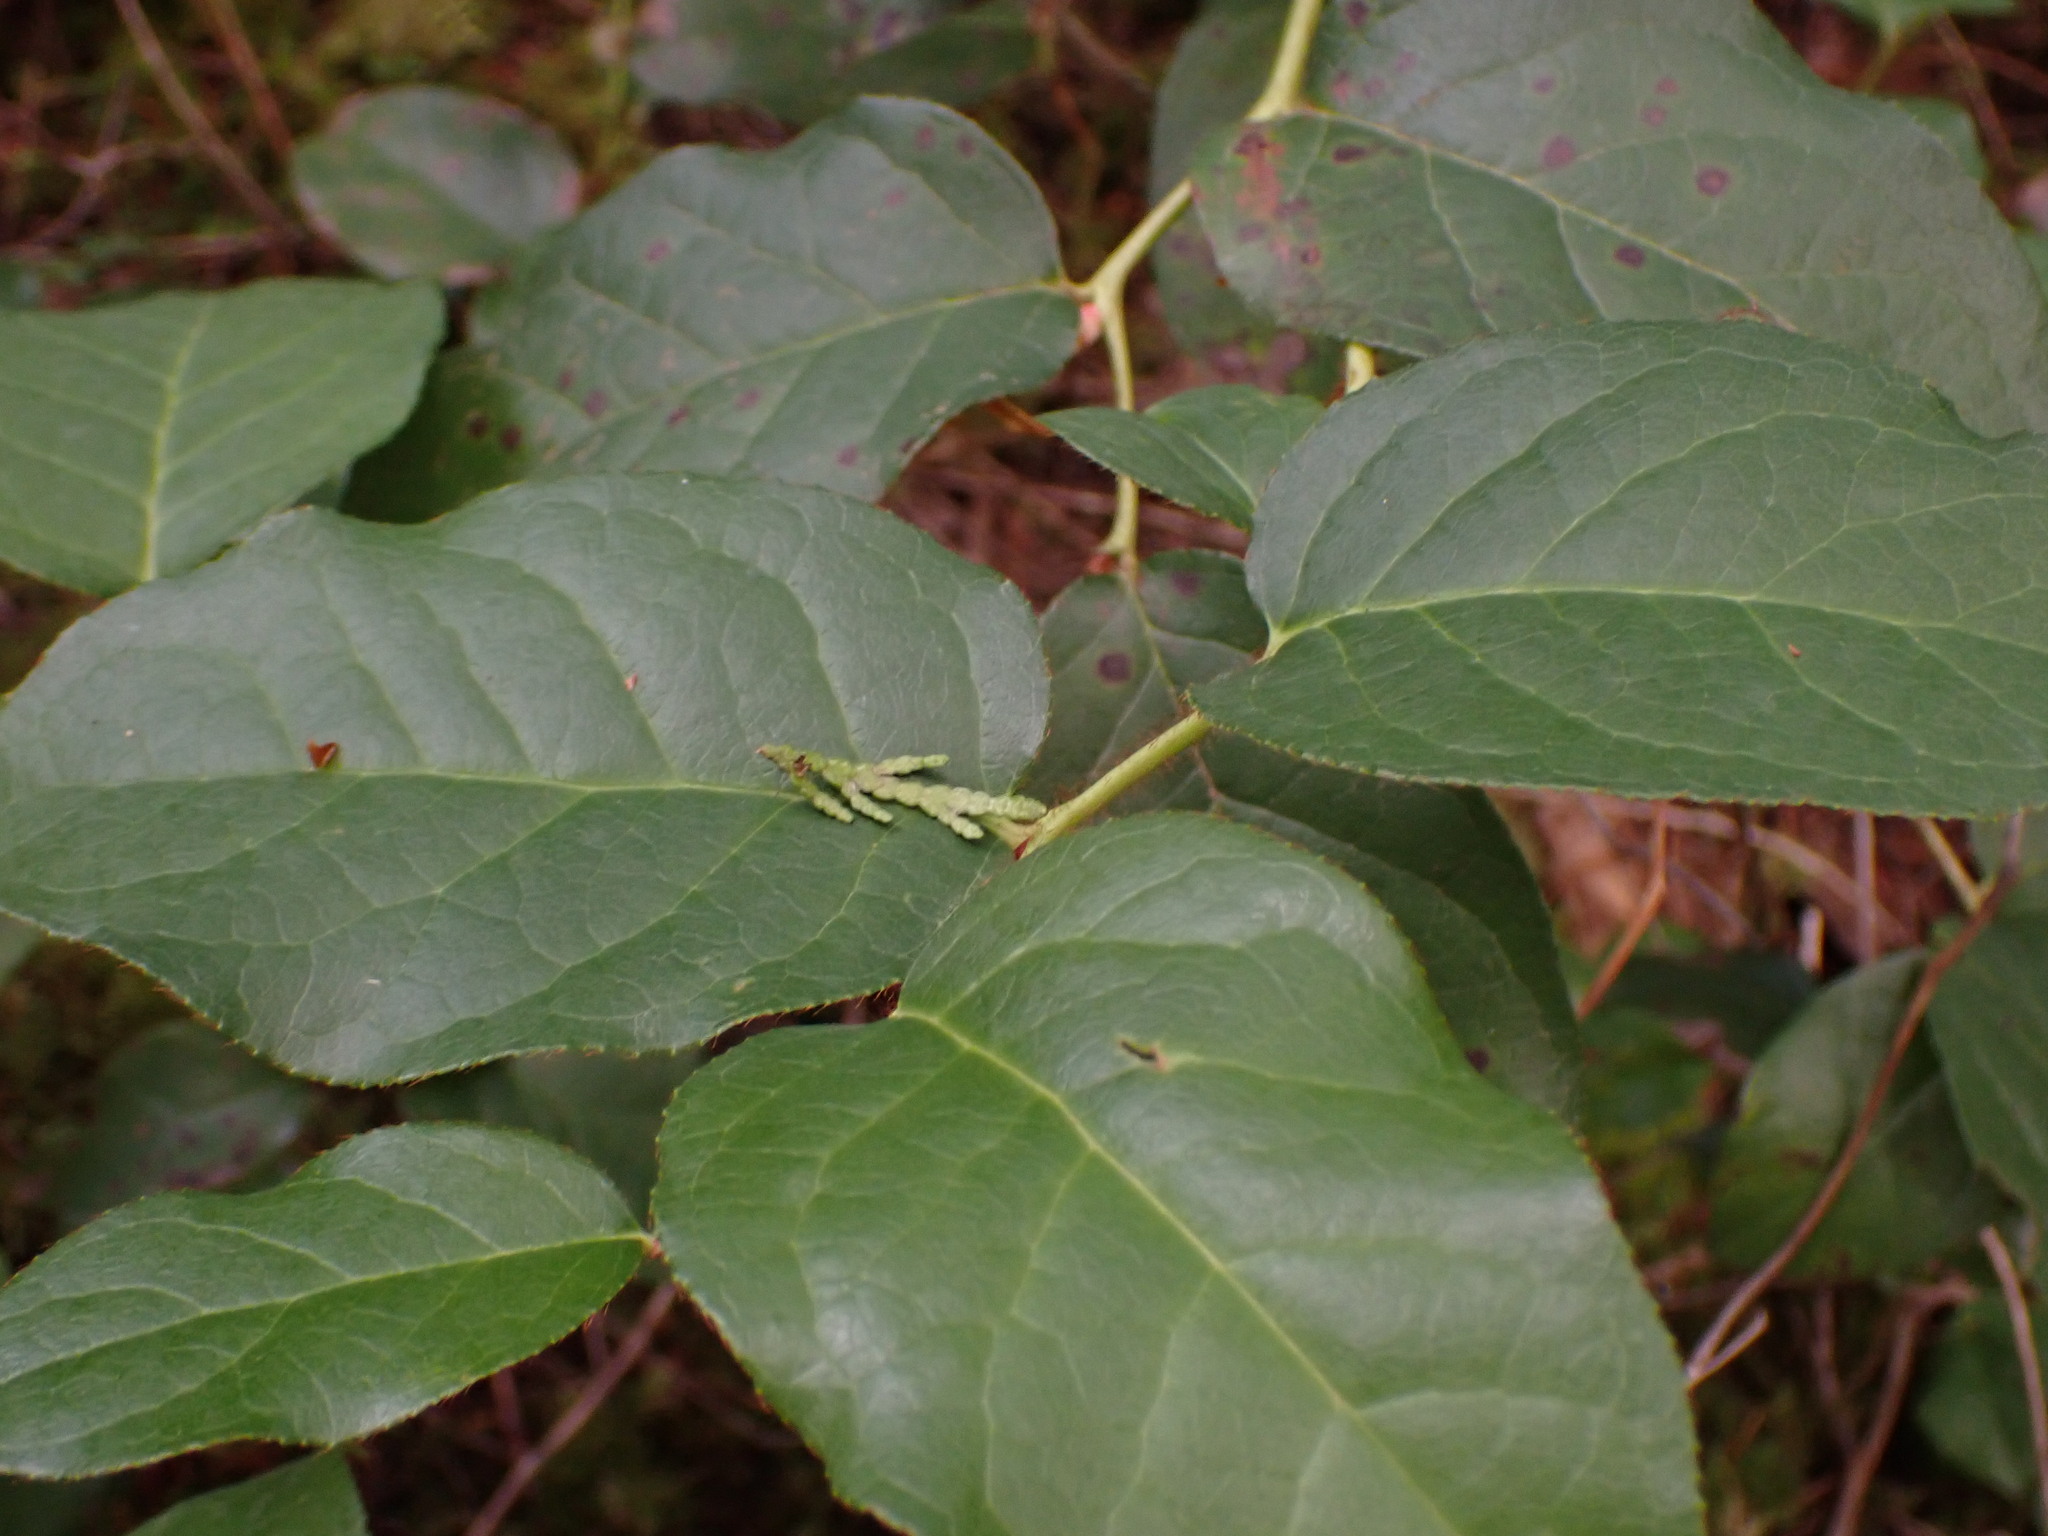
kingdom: Plantae
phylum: Tracheophyta
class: Magnoliopsida
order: Ericales
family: Ericaceae
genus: Gaultheria
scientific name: Gaultheria shallon
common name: Shallon
